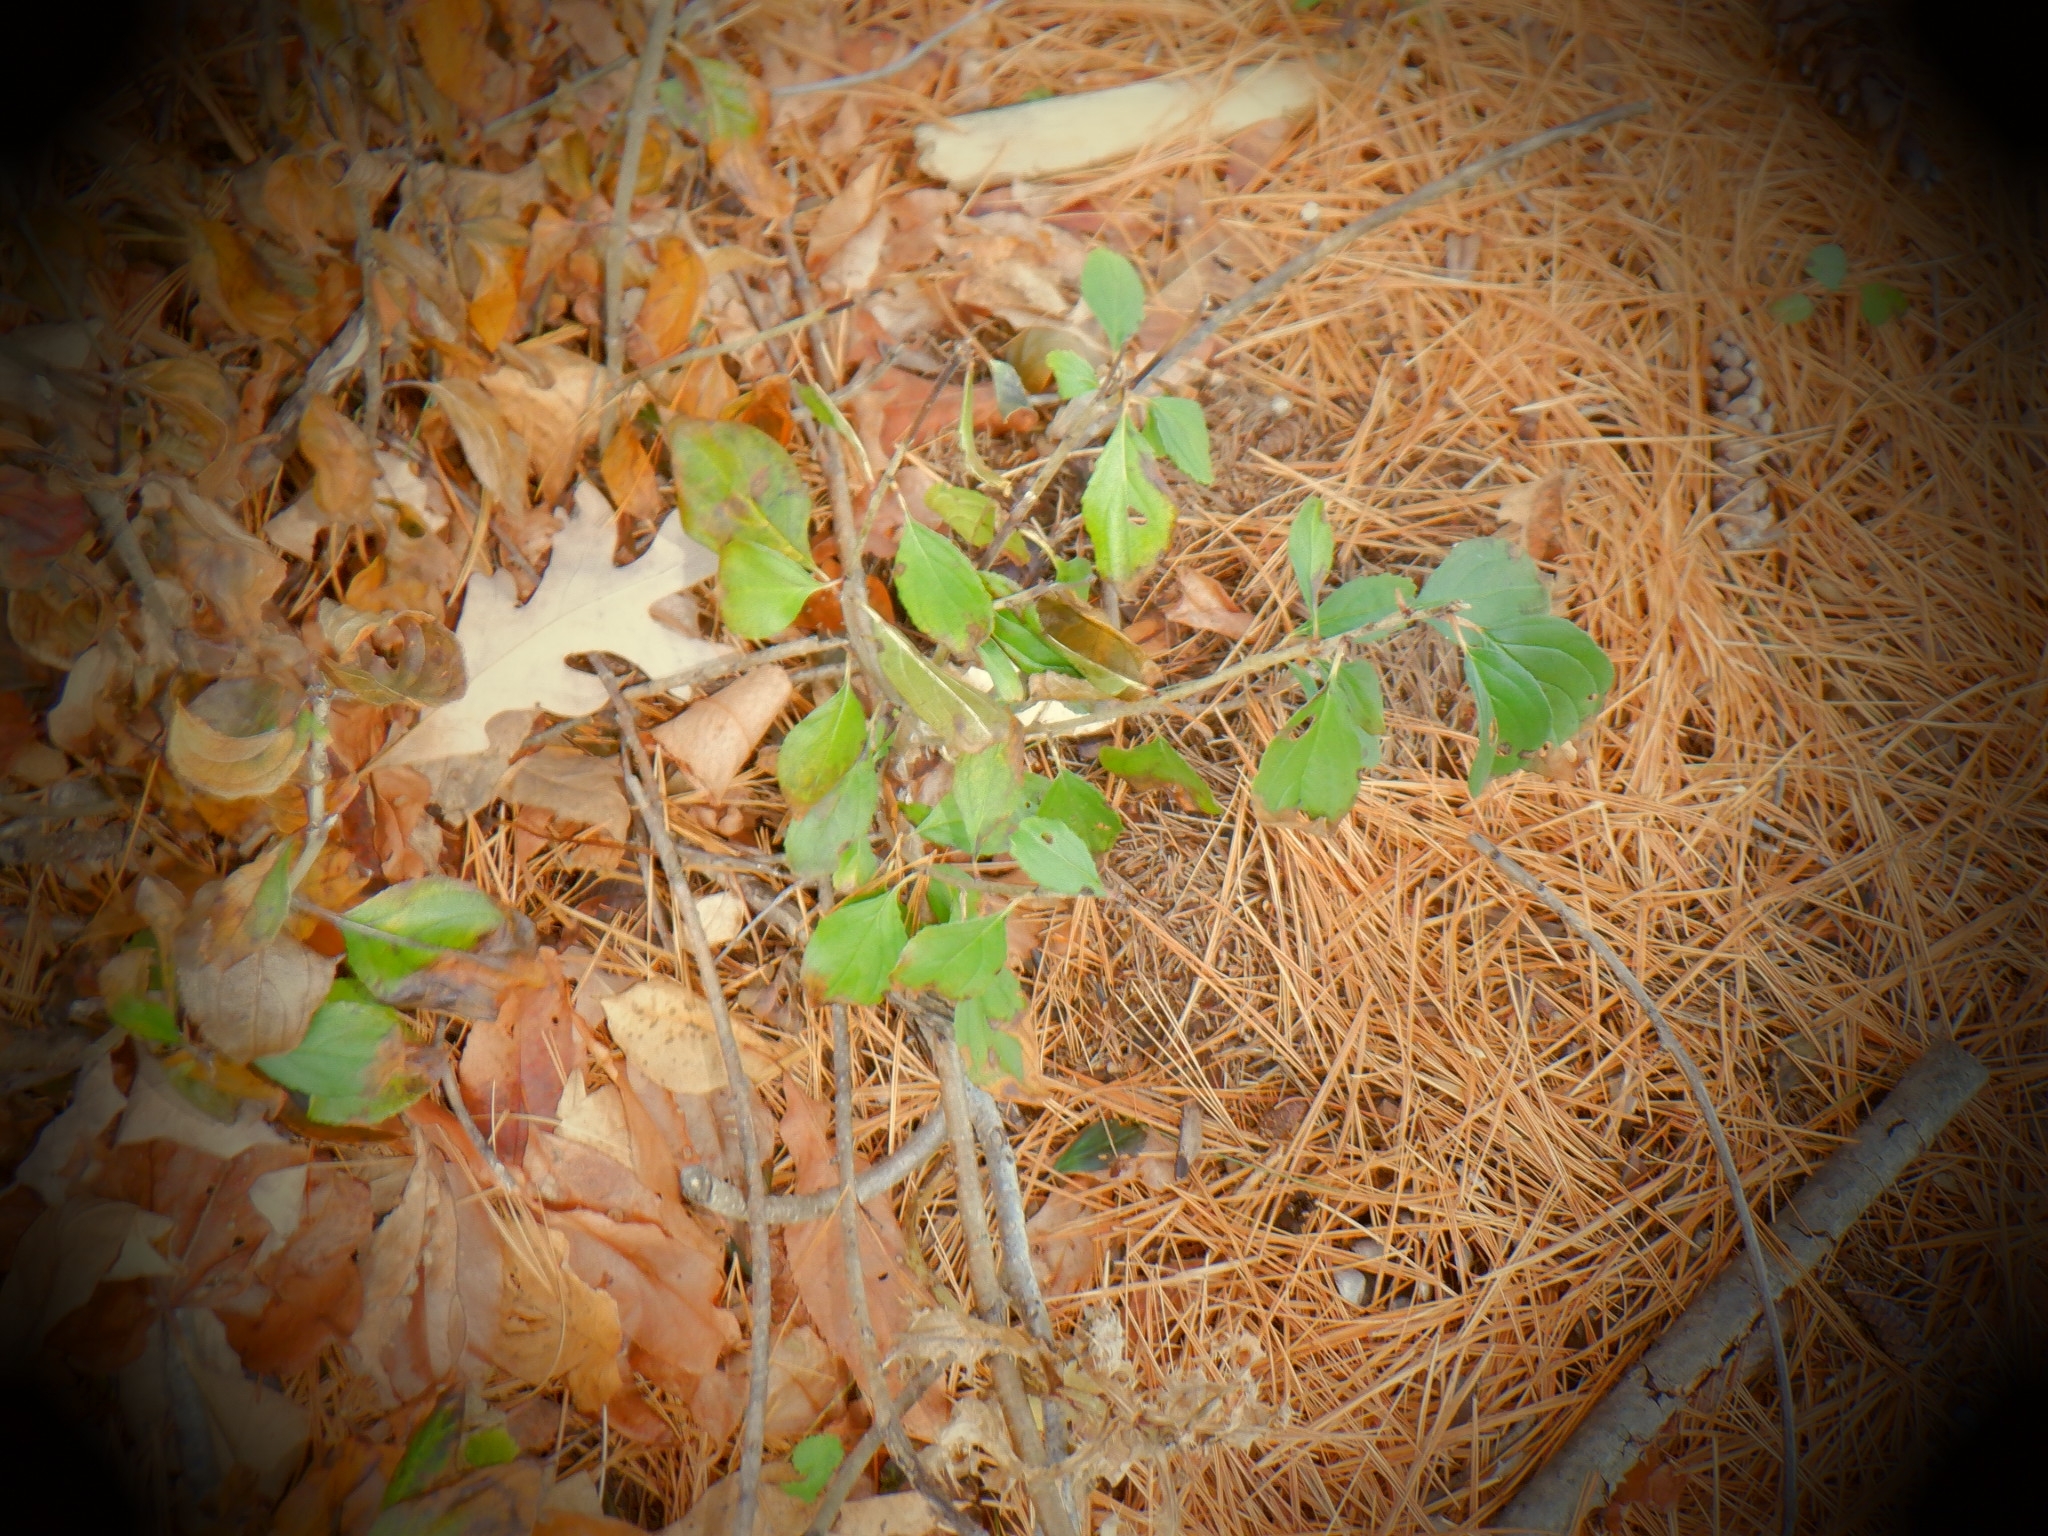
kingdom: Plantae
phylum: Tracheophyta
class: Magnoliopsida
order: Rosales
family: Rhamnaceae
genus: Rhamnus
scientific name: Rhamnus cathartica
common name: Common buckthorn
